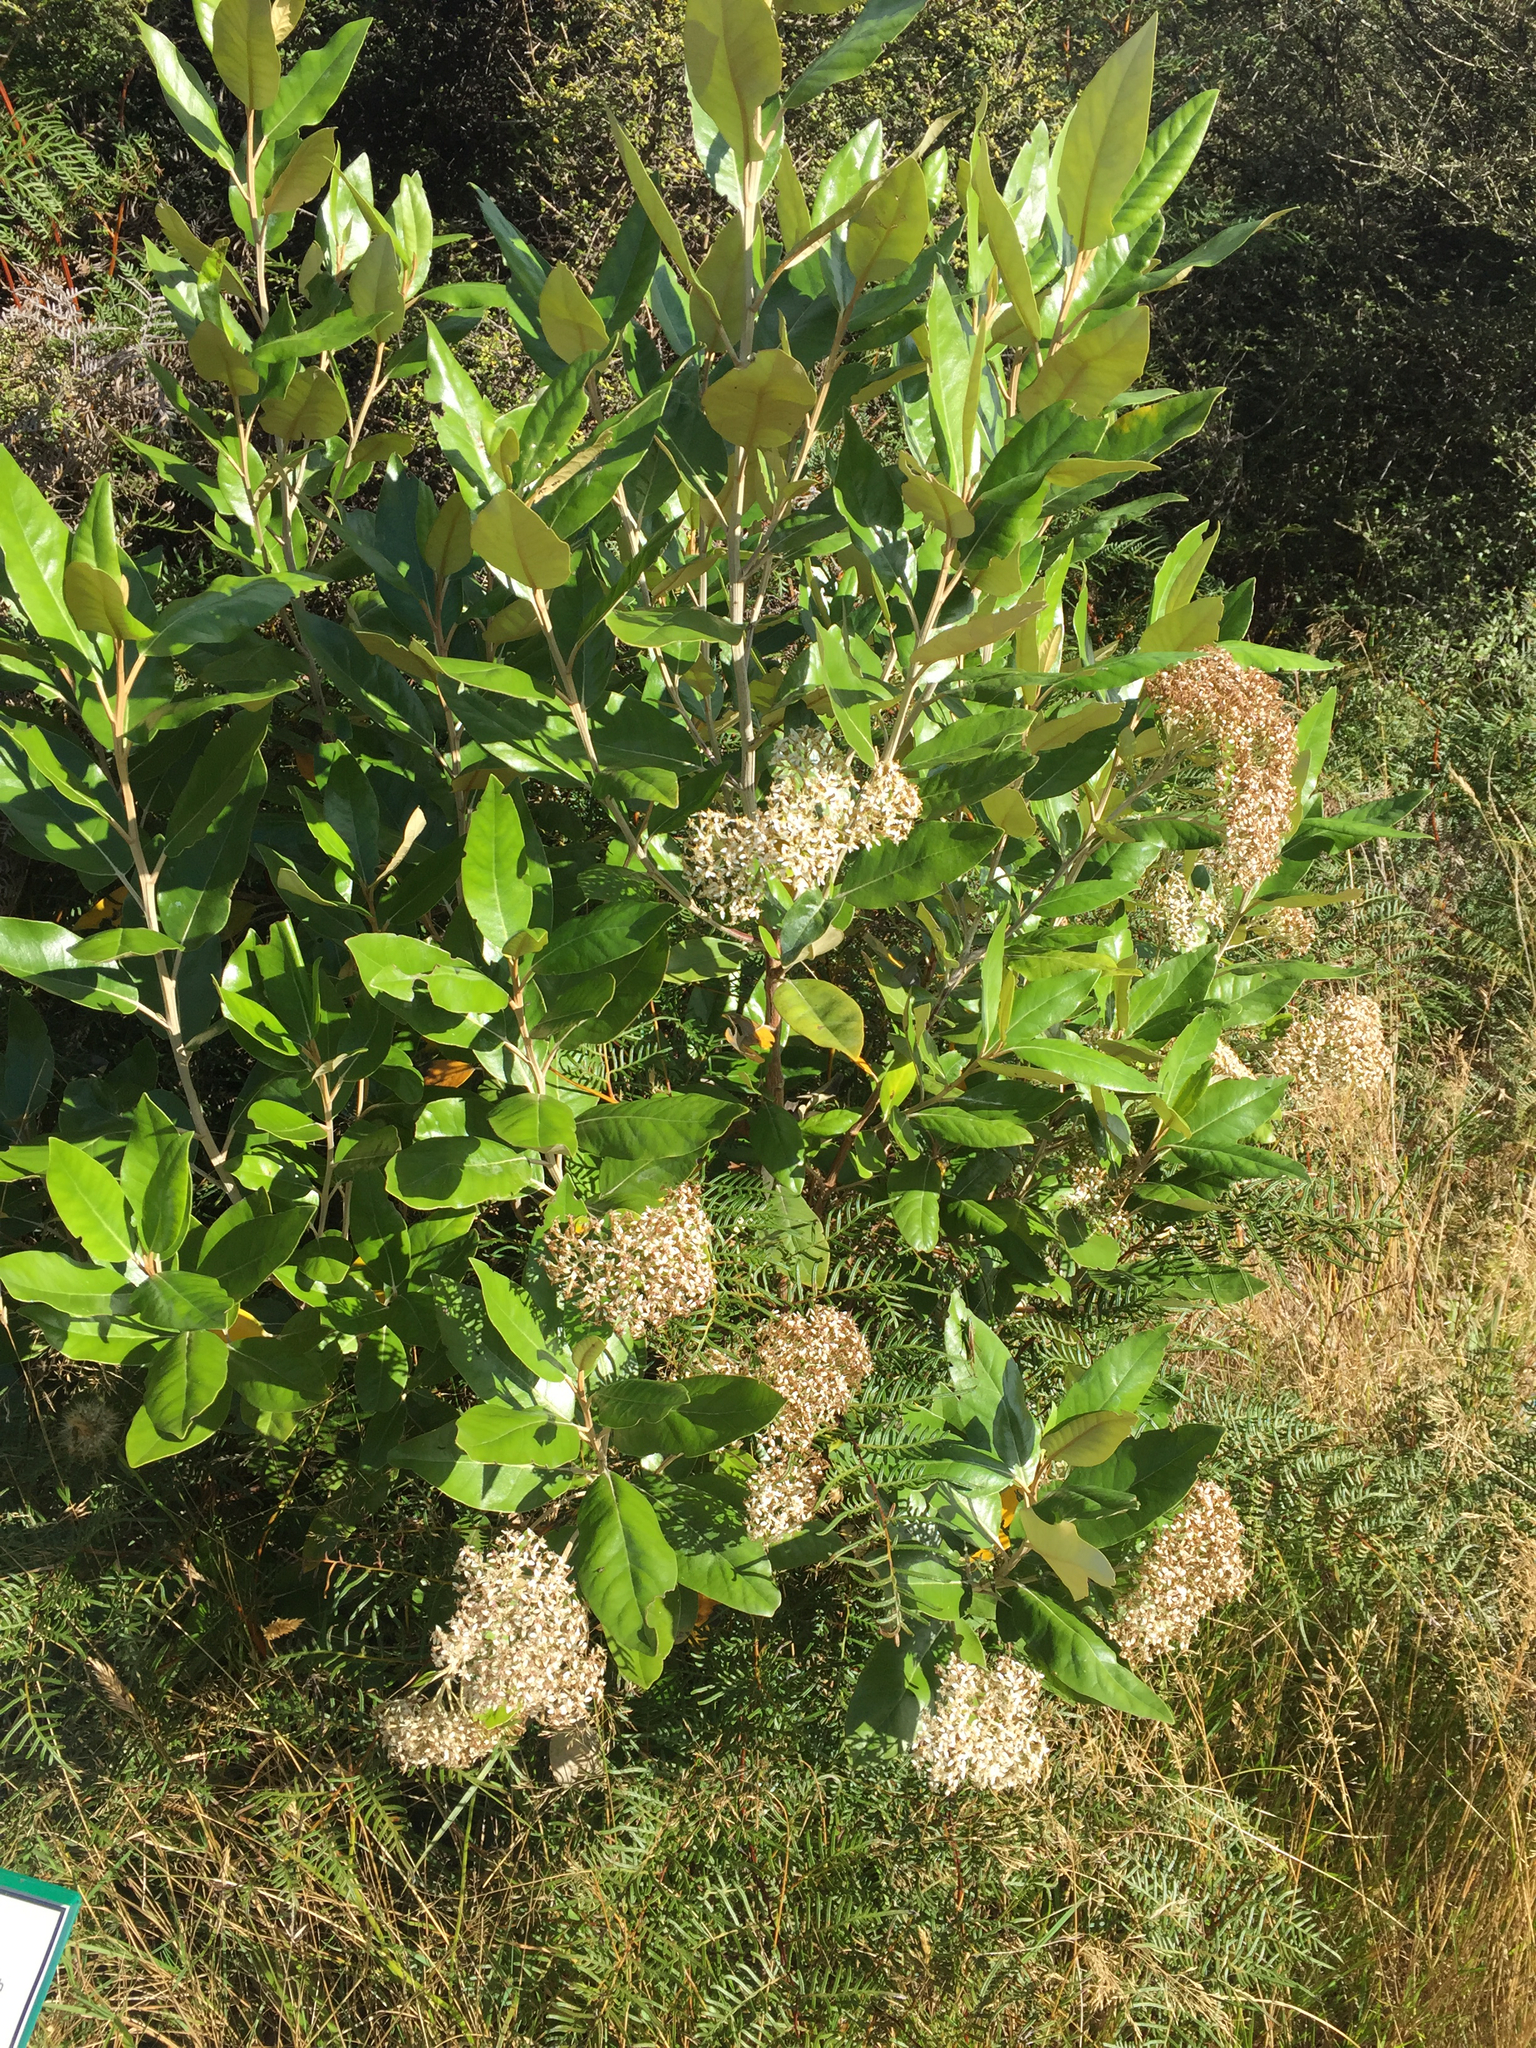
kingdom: Plantae
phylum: Tracheophyta
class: Magnoliopsida
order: Asterales
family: Asteraceae
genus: Olearia
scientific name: Olearia avicenniifolia
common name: Mangrove-leaf daisybush
